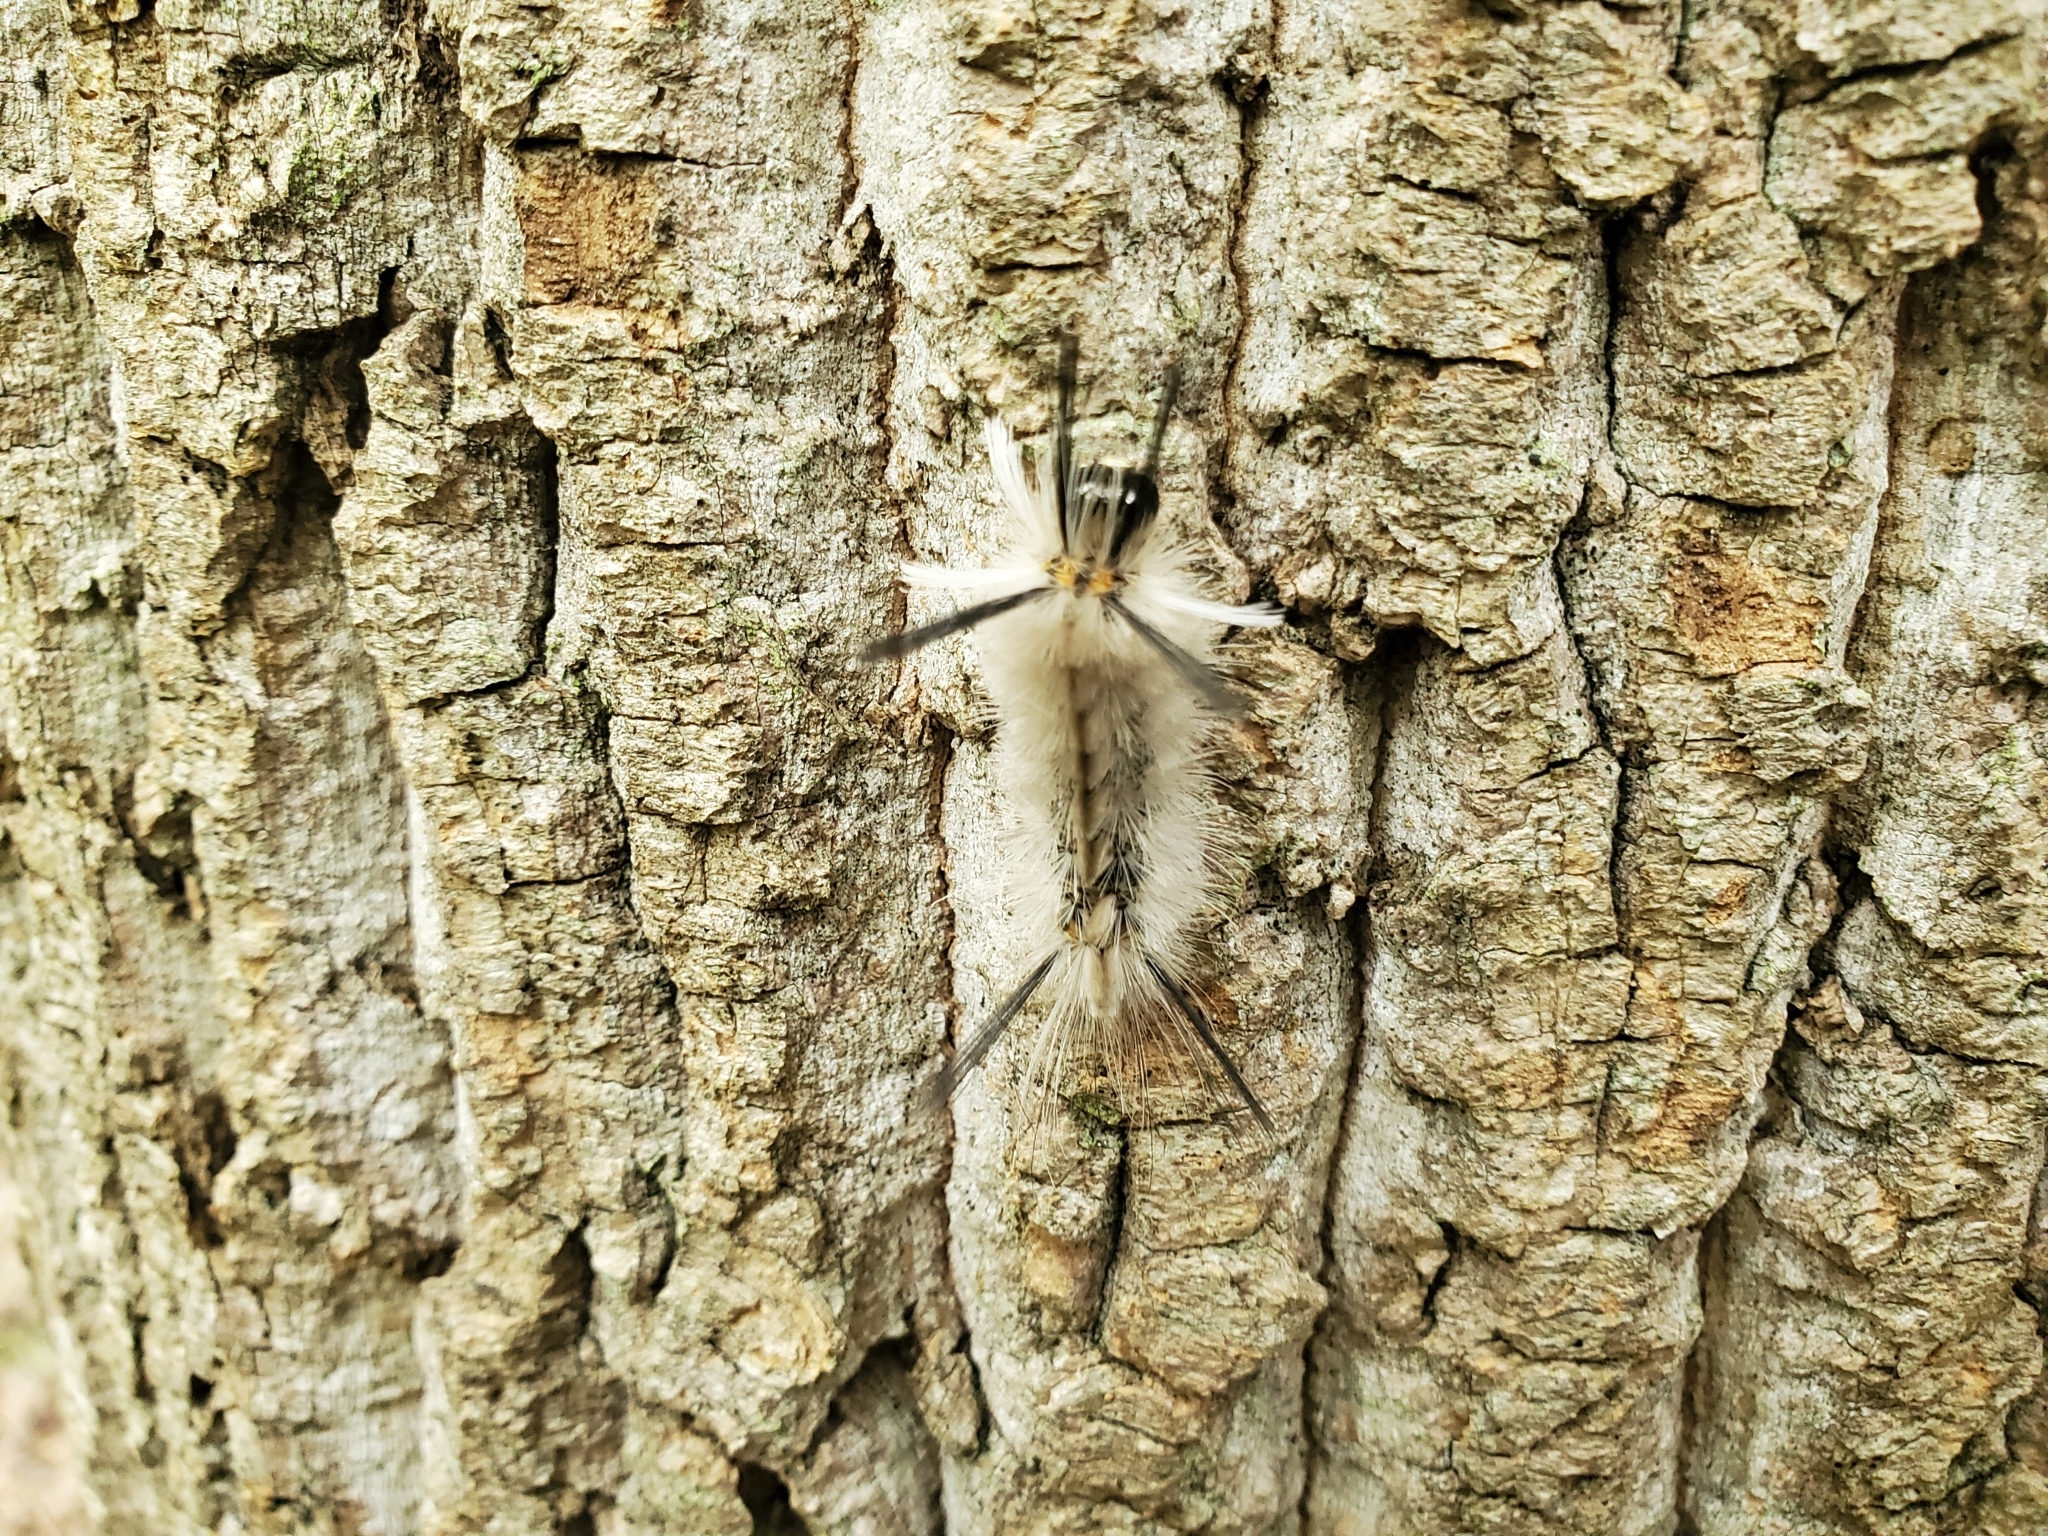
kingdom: Animalia
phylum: Arthropoda
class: Insecta
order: Lepidoptera
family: Erebidae
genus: Halysidota
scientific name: Halysidota tessellaris
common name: Banded tussock moth
